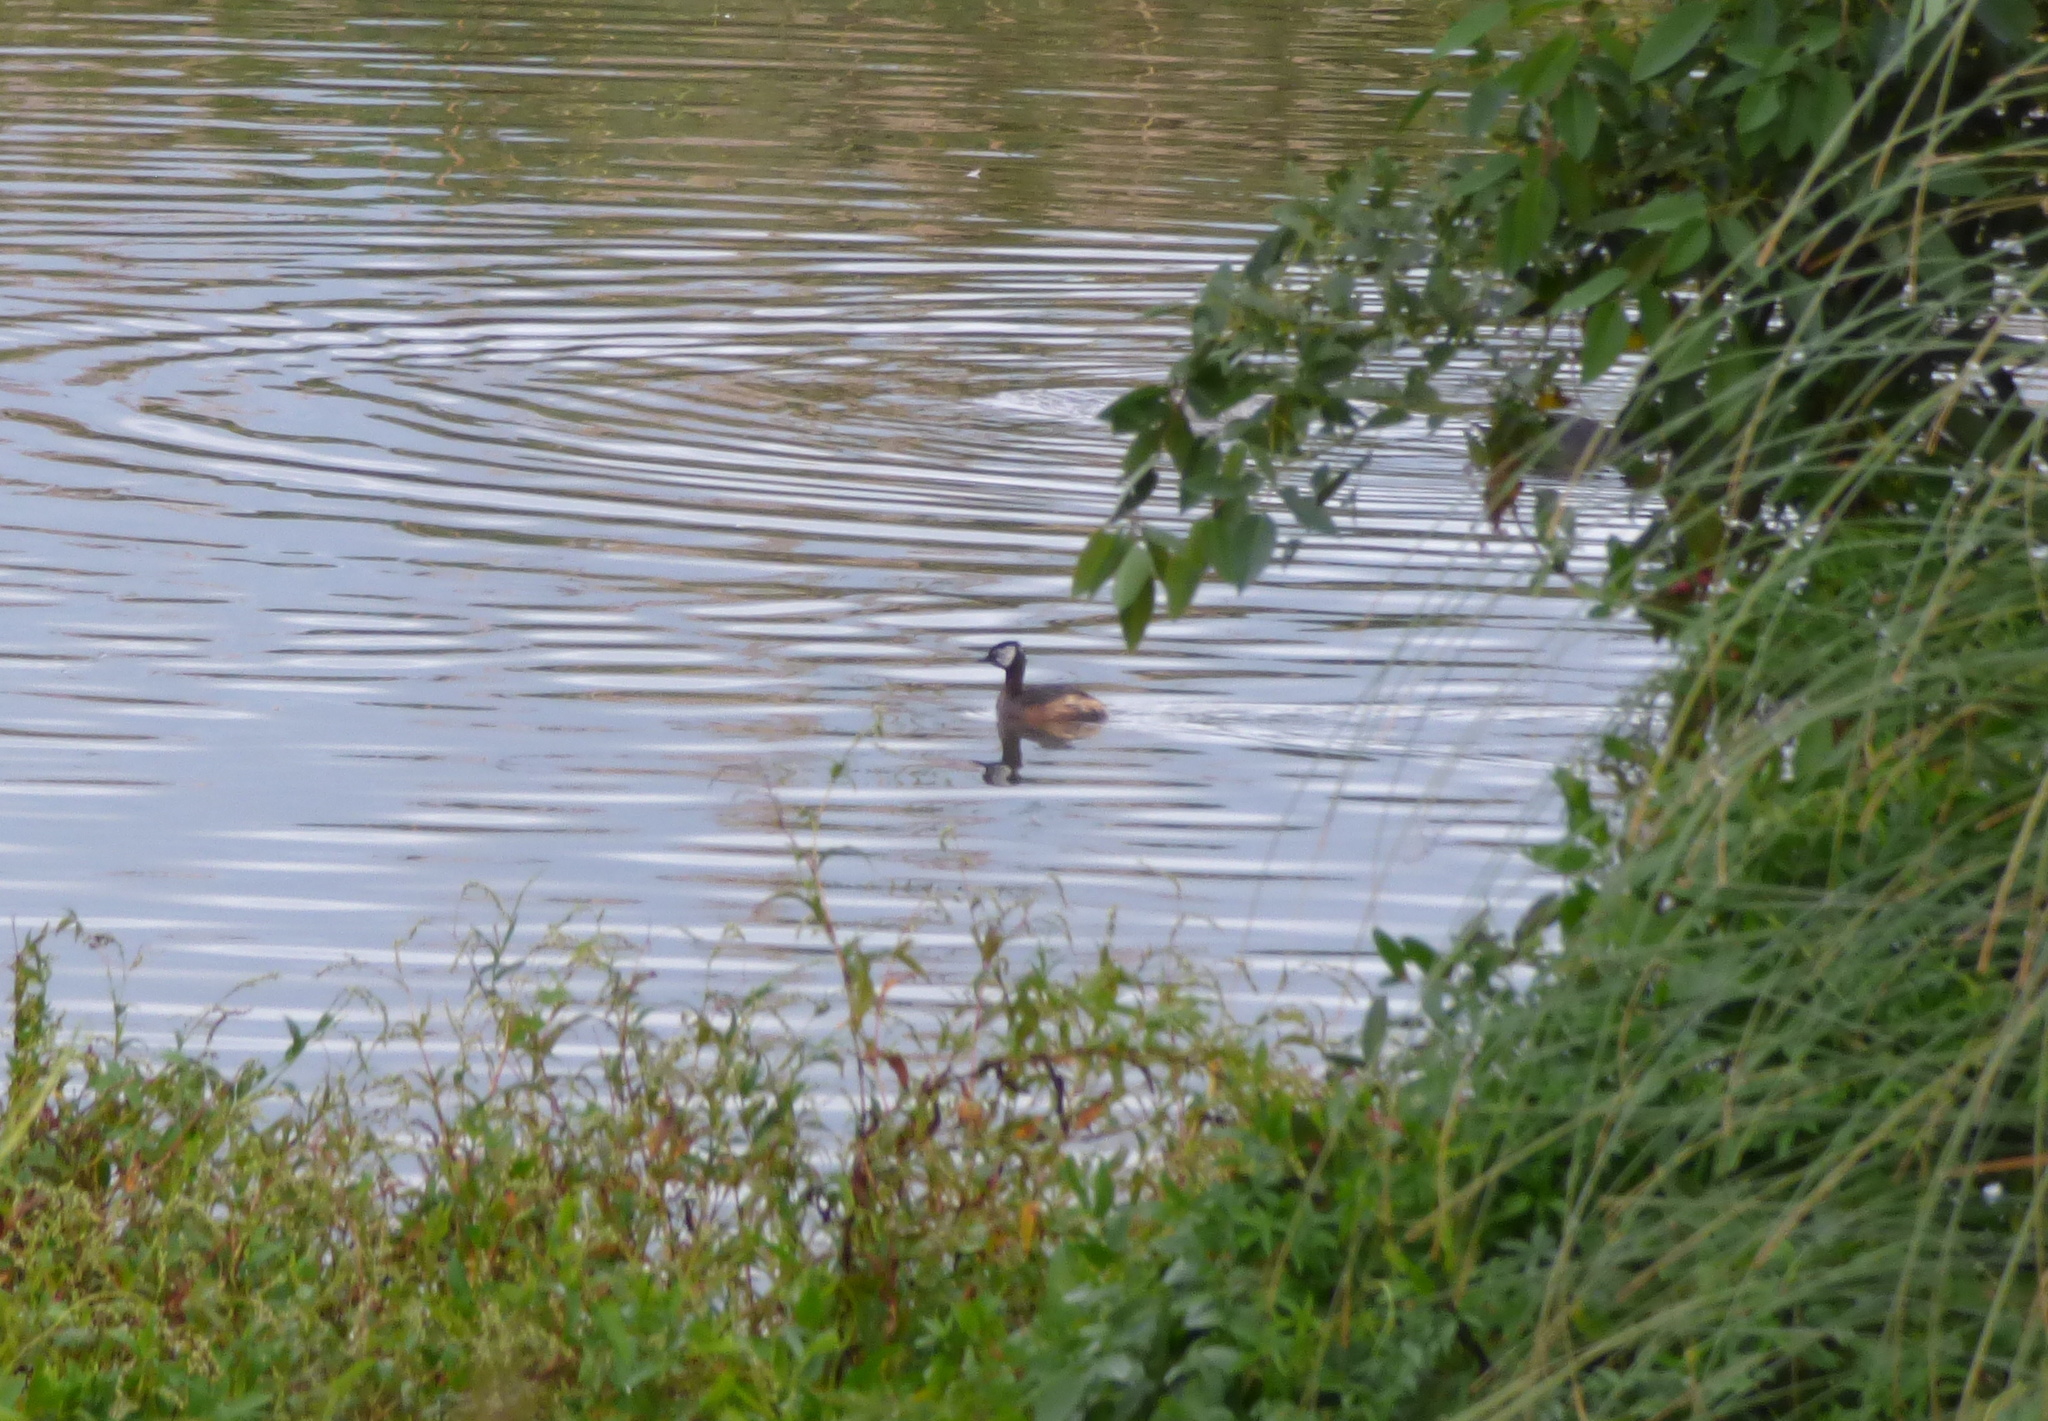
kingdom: Animalia
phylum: Chordata
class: Aves
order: Podicipediformes
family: Podicipedidae
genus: Rollandia
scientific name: Rollandia rolland
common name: White-tufted grebe
